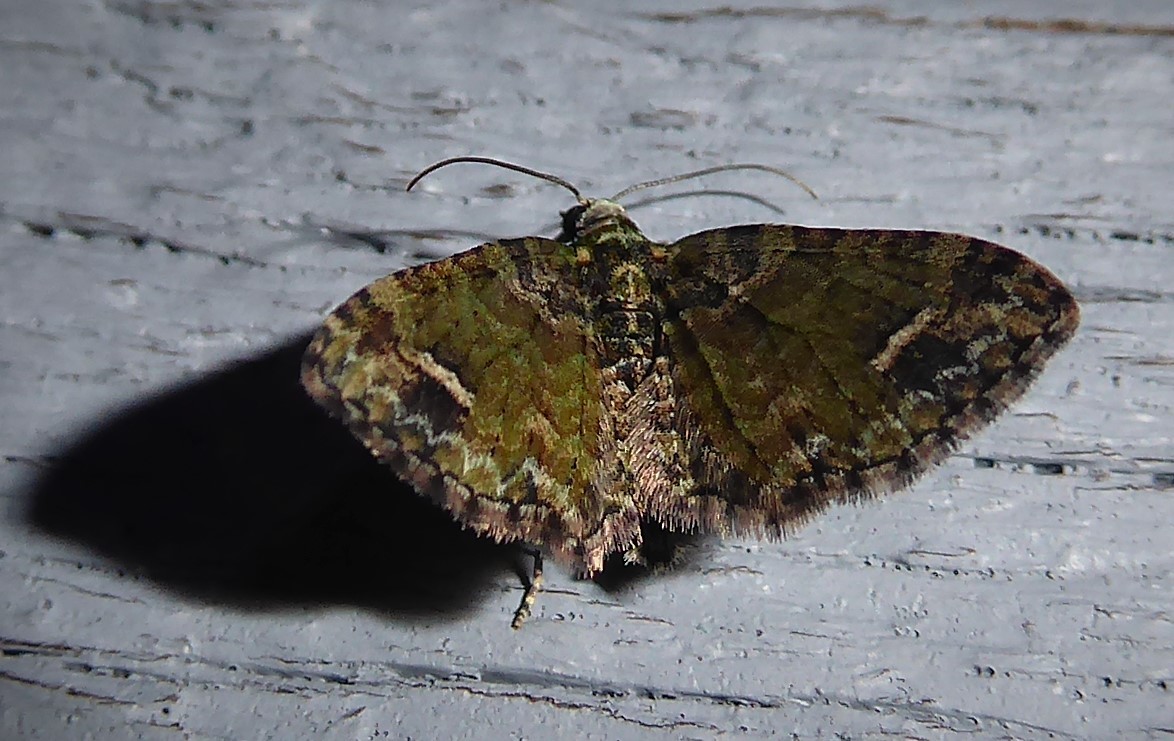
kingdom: Animalia
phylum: Arthropoda
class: Insecta
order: Lepidoptera
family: Geometridae
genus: Idaea
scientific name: Idaea mutanda
